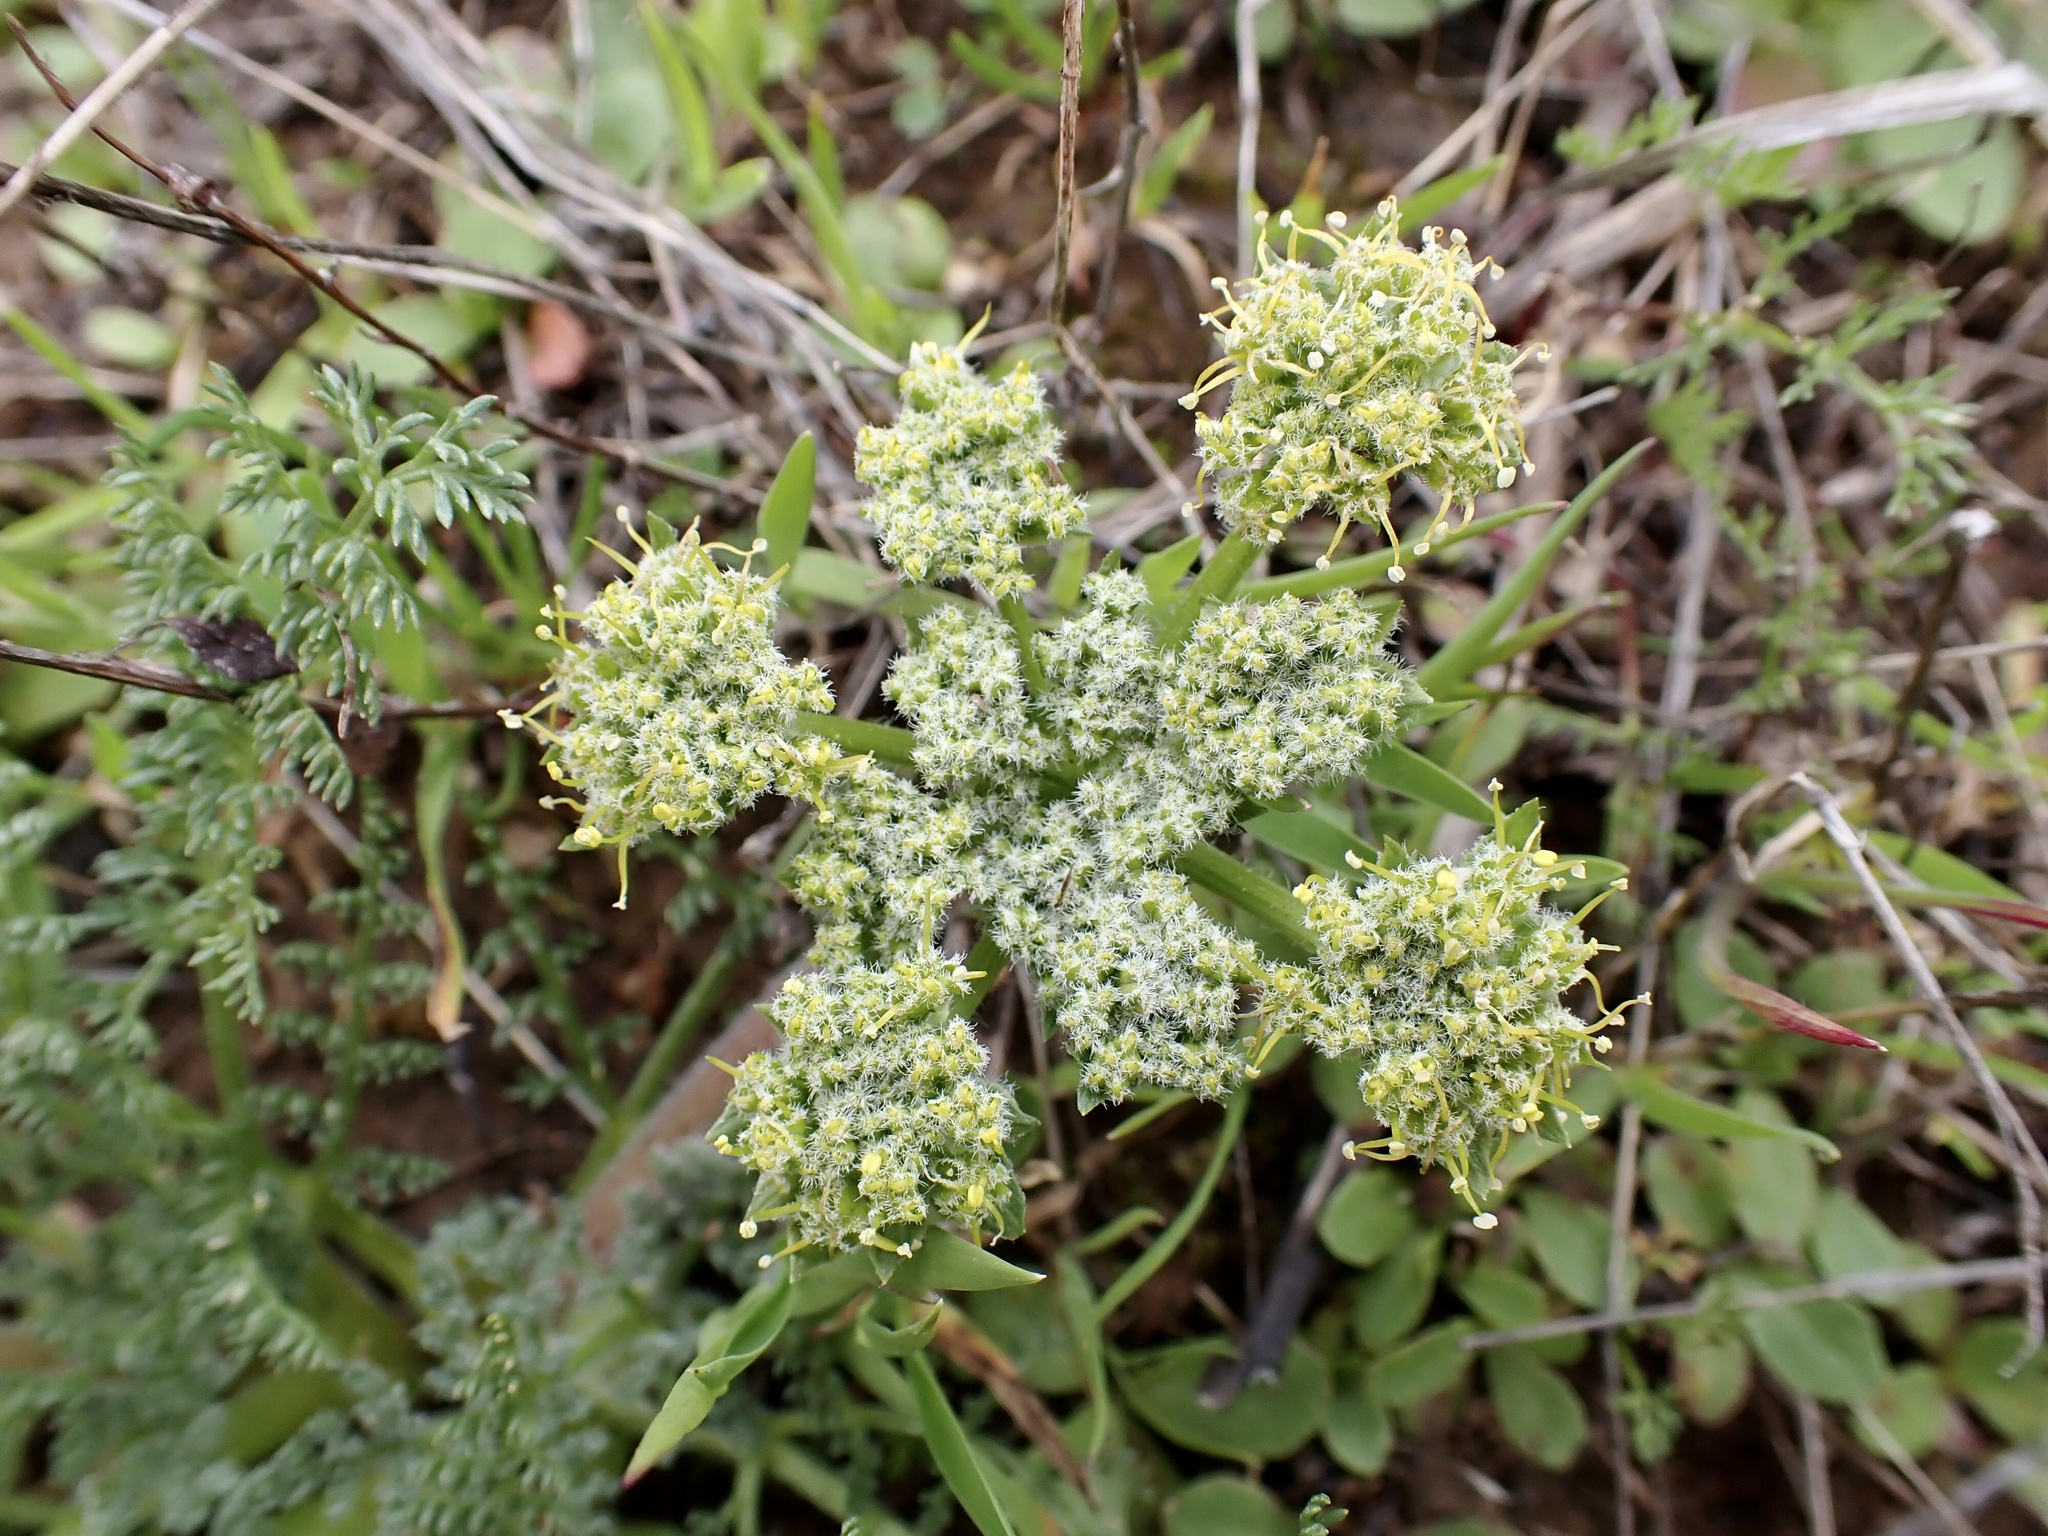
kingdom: Plantae
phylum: Tracheophyta
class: Magnoliopsida
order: Apiales
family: Apiaceae
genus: Lomatium
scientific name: Lomatium dasycarpum
